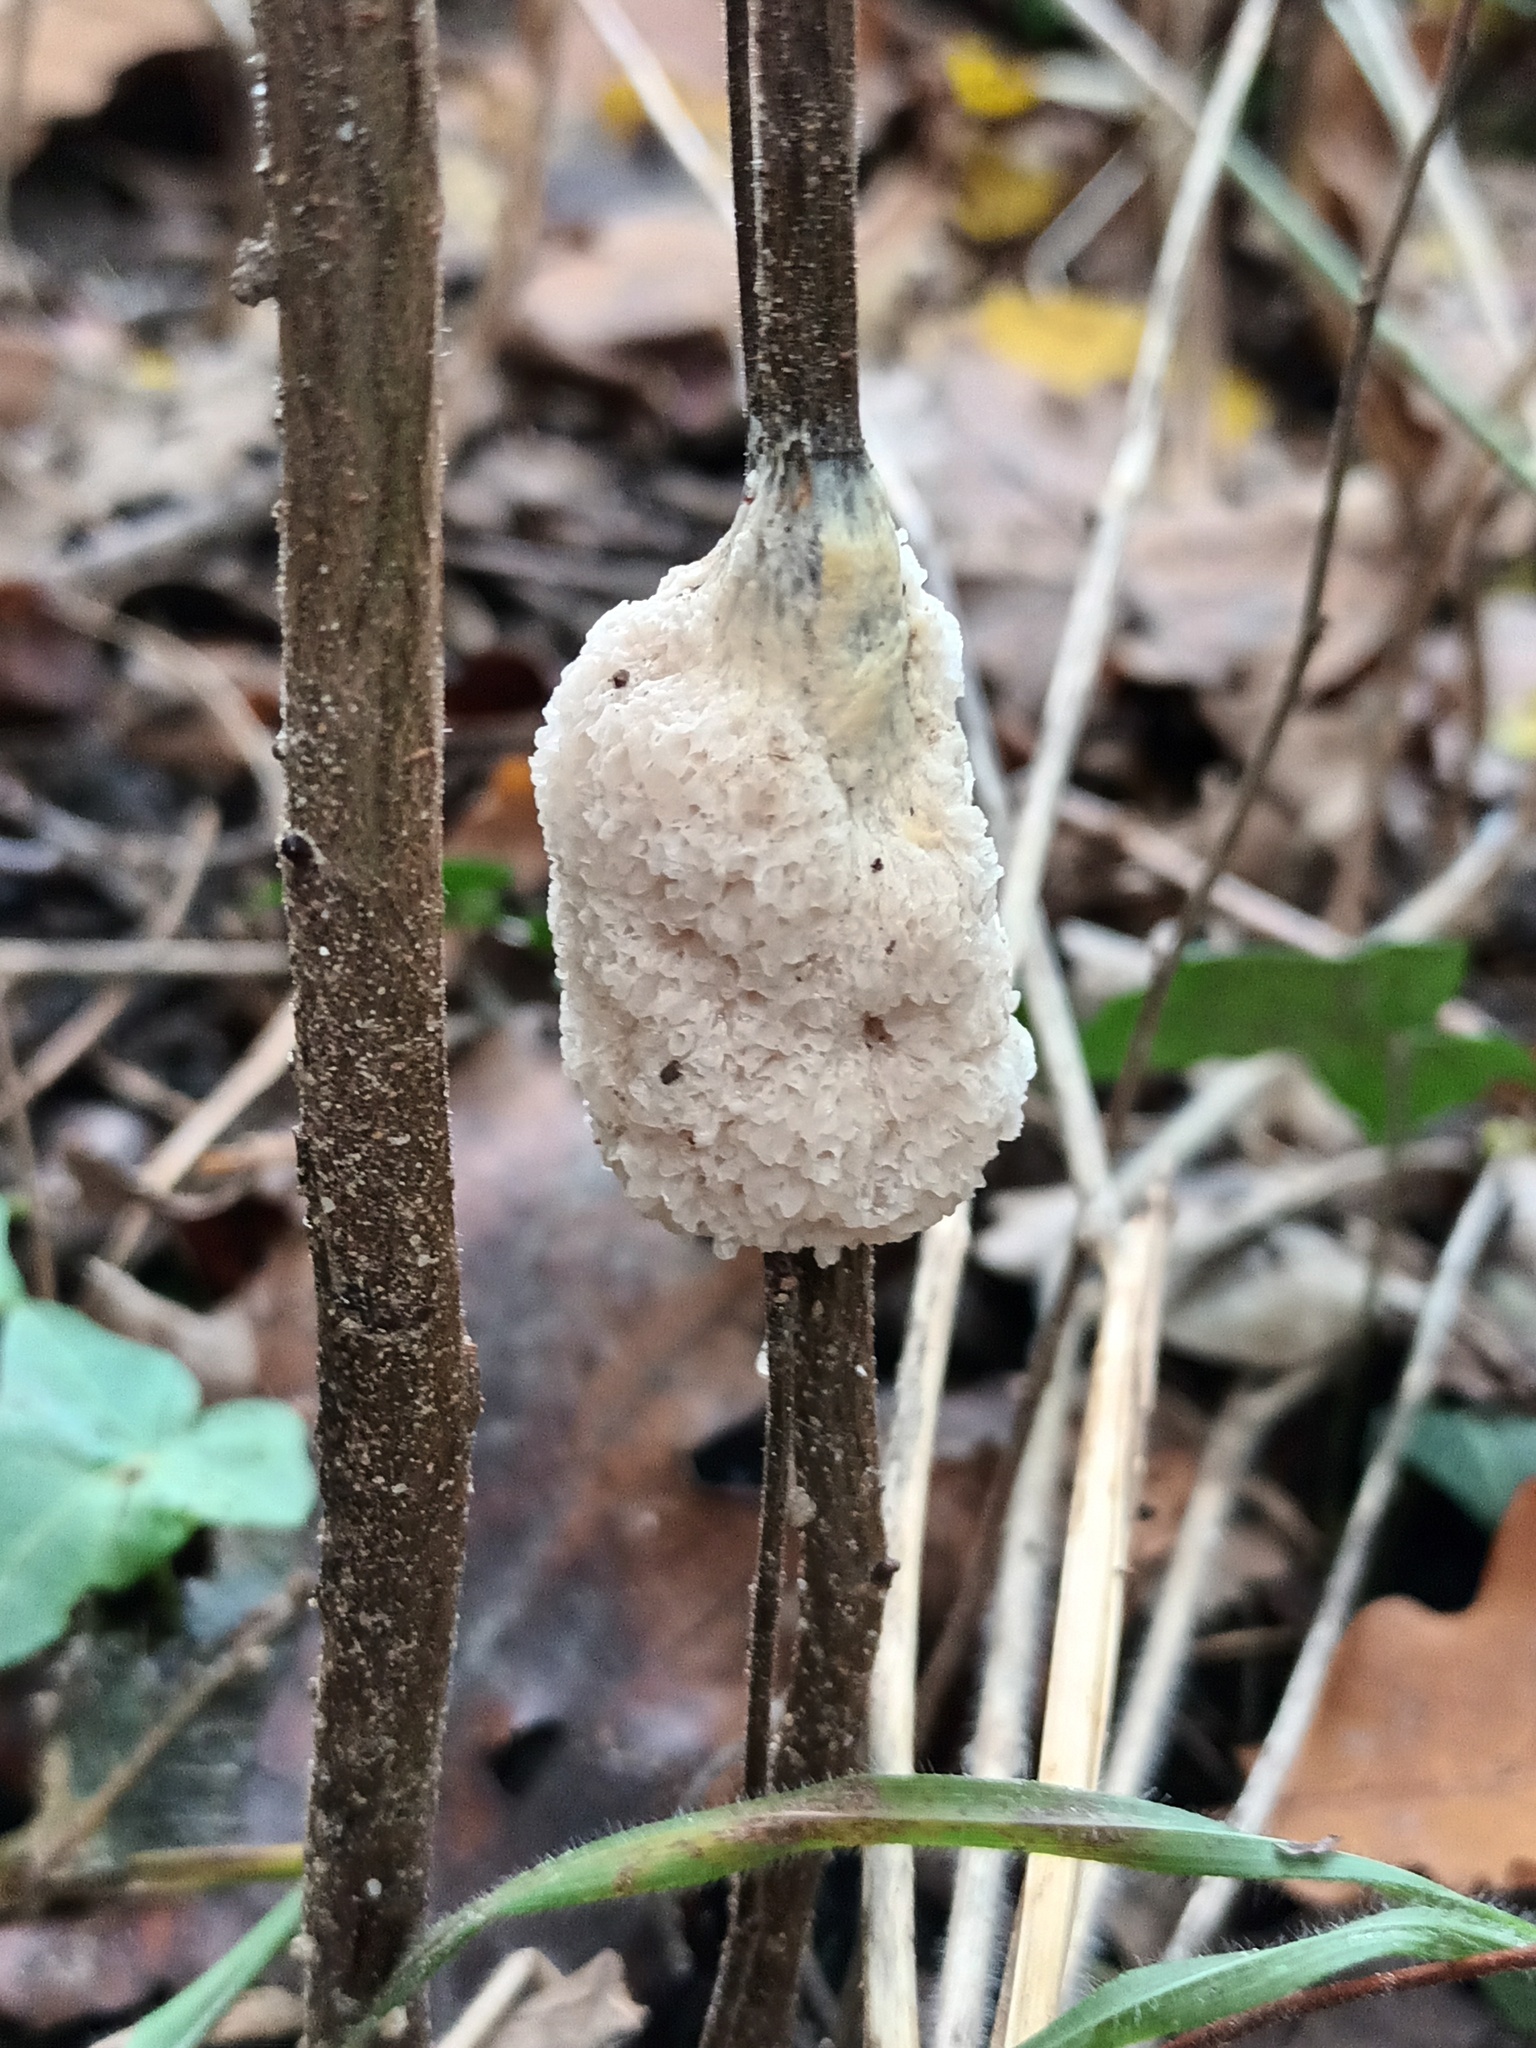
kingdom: Protozoa
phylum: Mycetozoa
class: Myxomycetes
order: Physarales
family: Physaraceae
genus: Didymium
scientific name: Didymium
